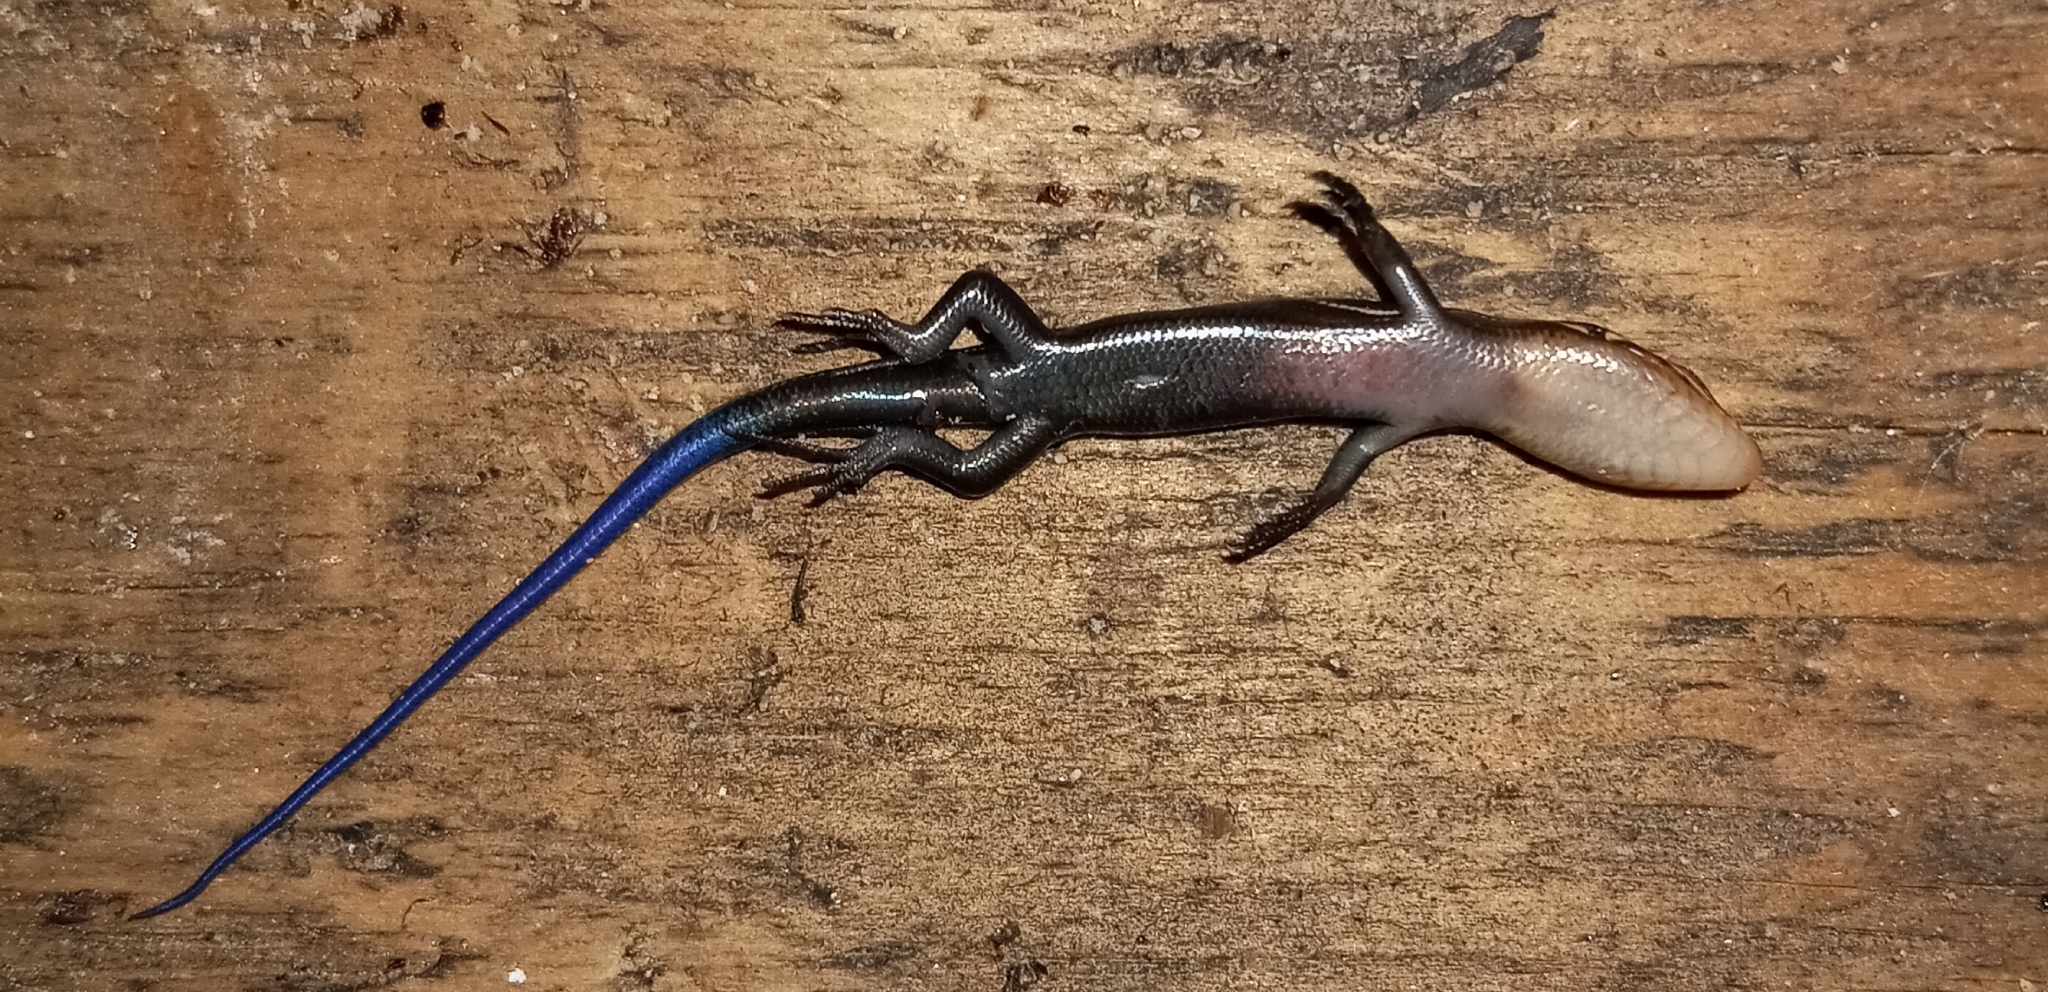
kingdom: Animalia
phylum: Chordata
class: Squamata
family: Scincidae
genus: Plestiodon
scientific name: Plestiodon inexpectatus
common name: Southeastern five-lined skink
